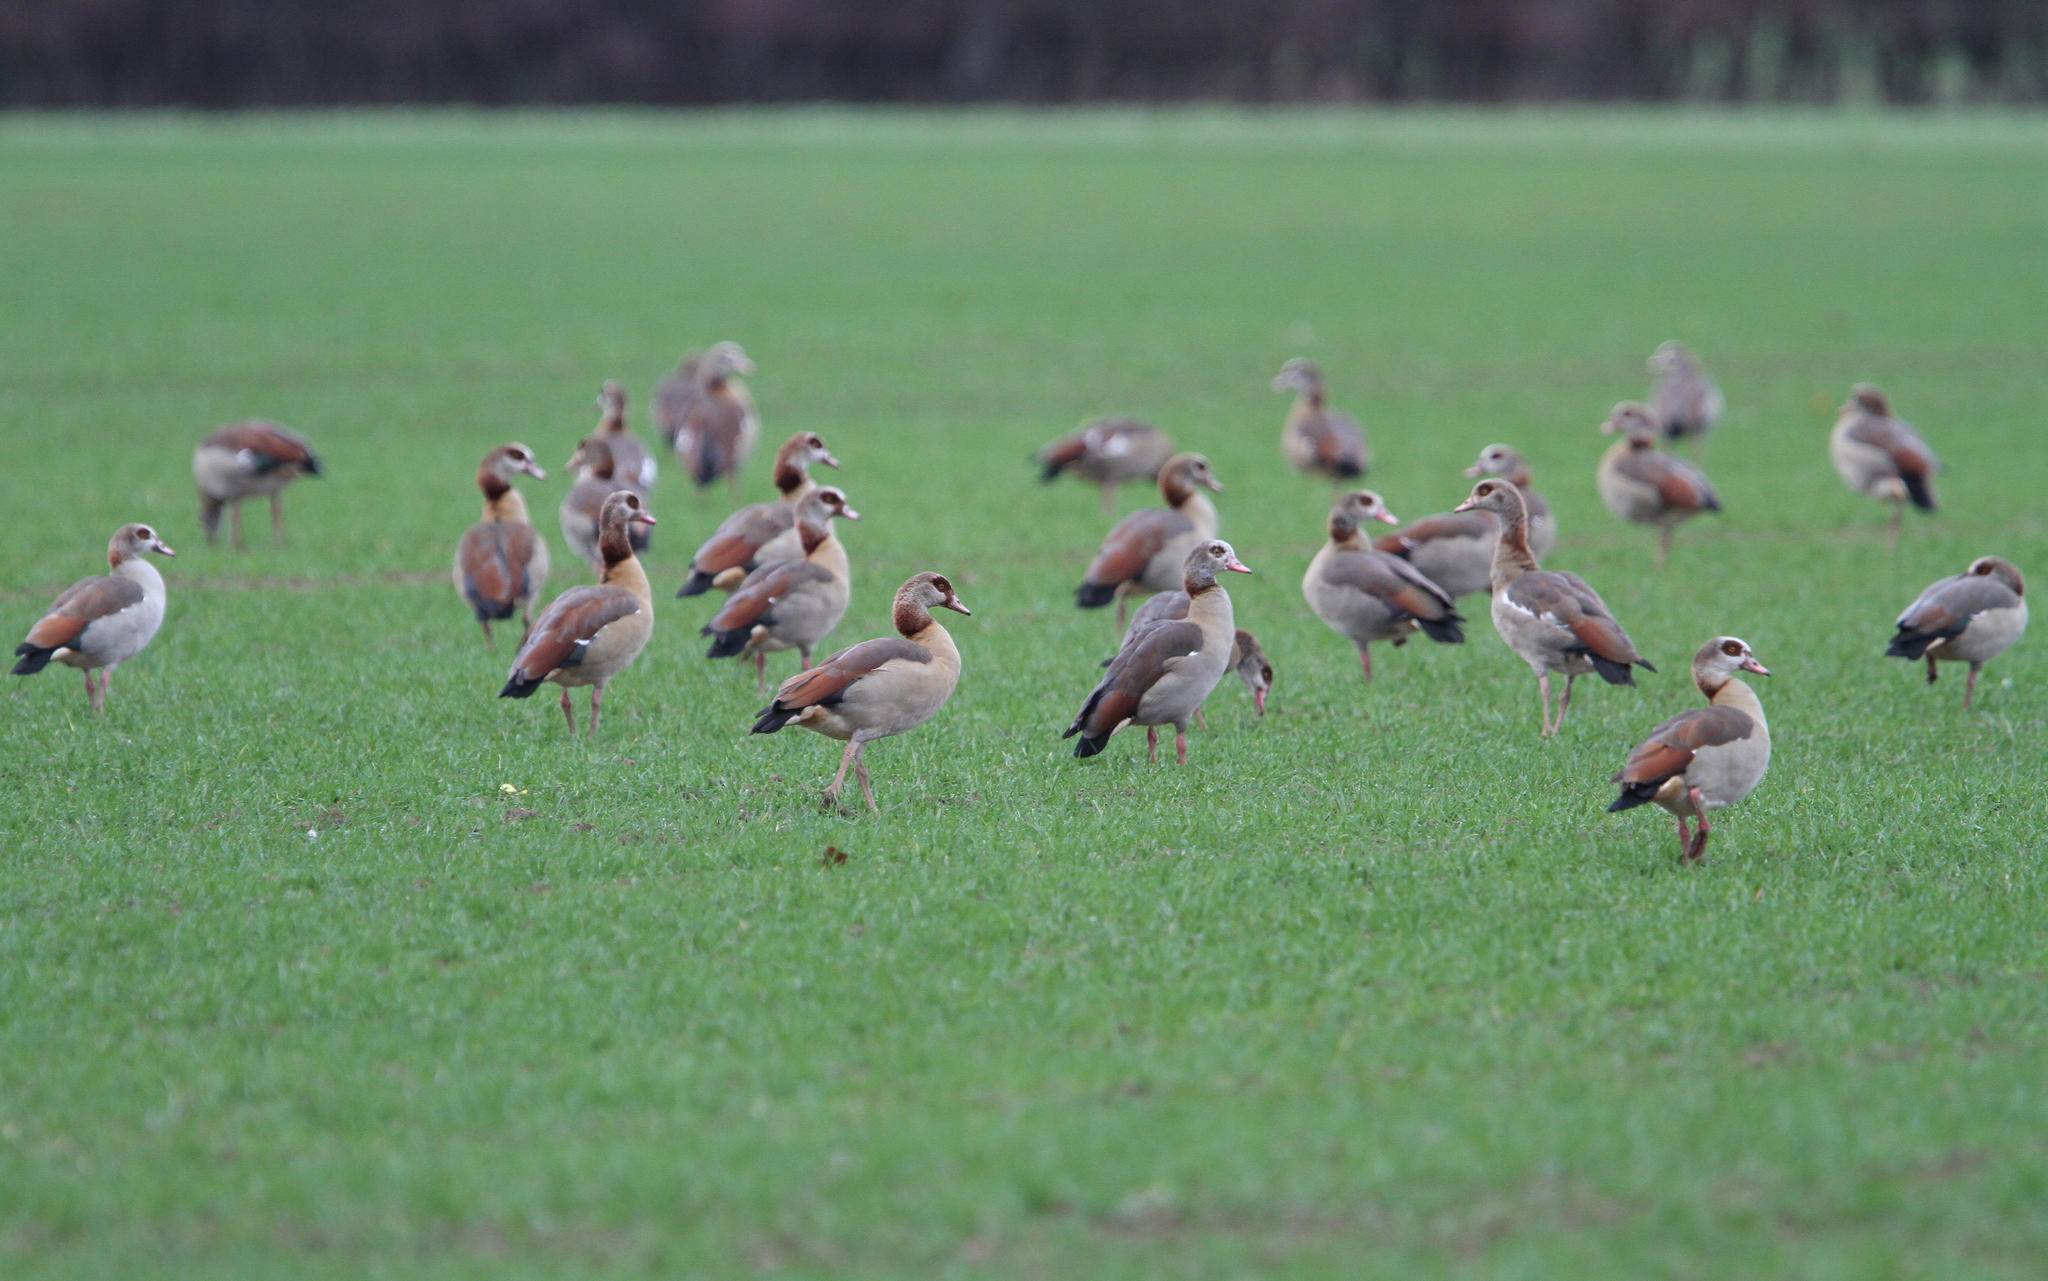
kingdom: Animalia
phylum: Chordata
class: Aves
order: Anseriformes
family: Anatidae
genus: Alopochen
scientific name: Alopochen aegyptiaca
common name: Egyptian goose
